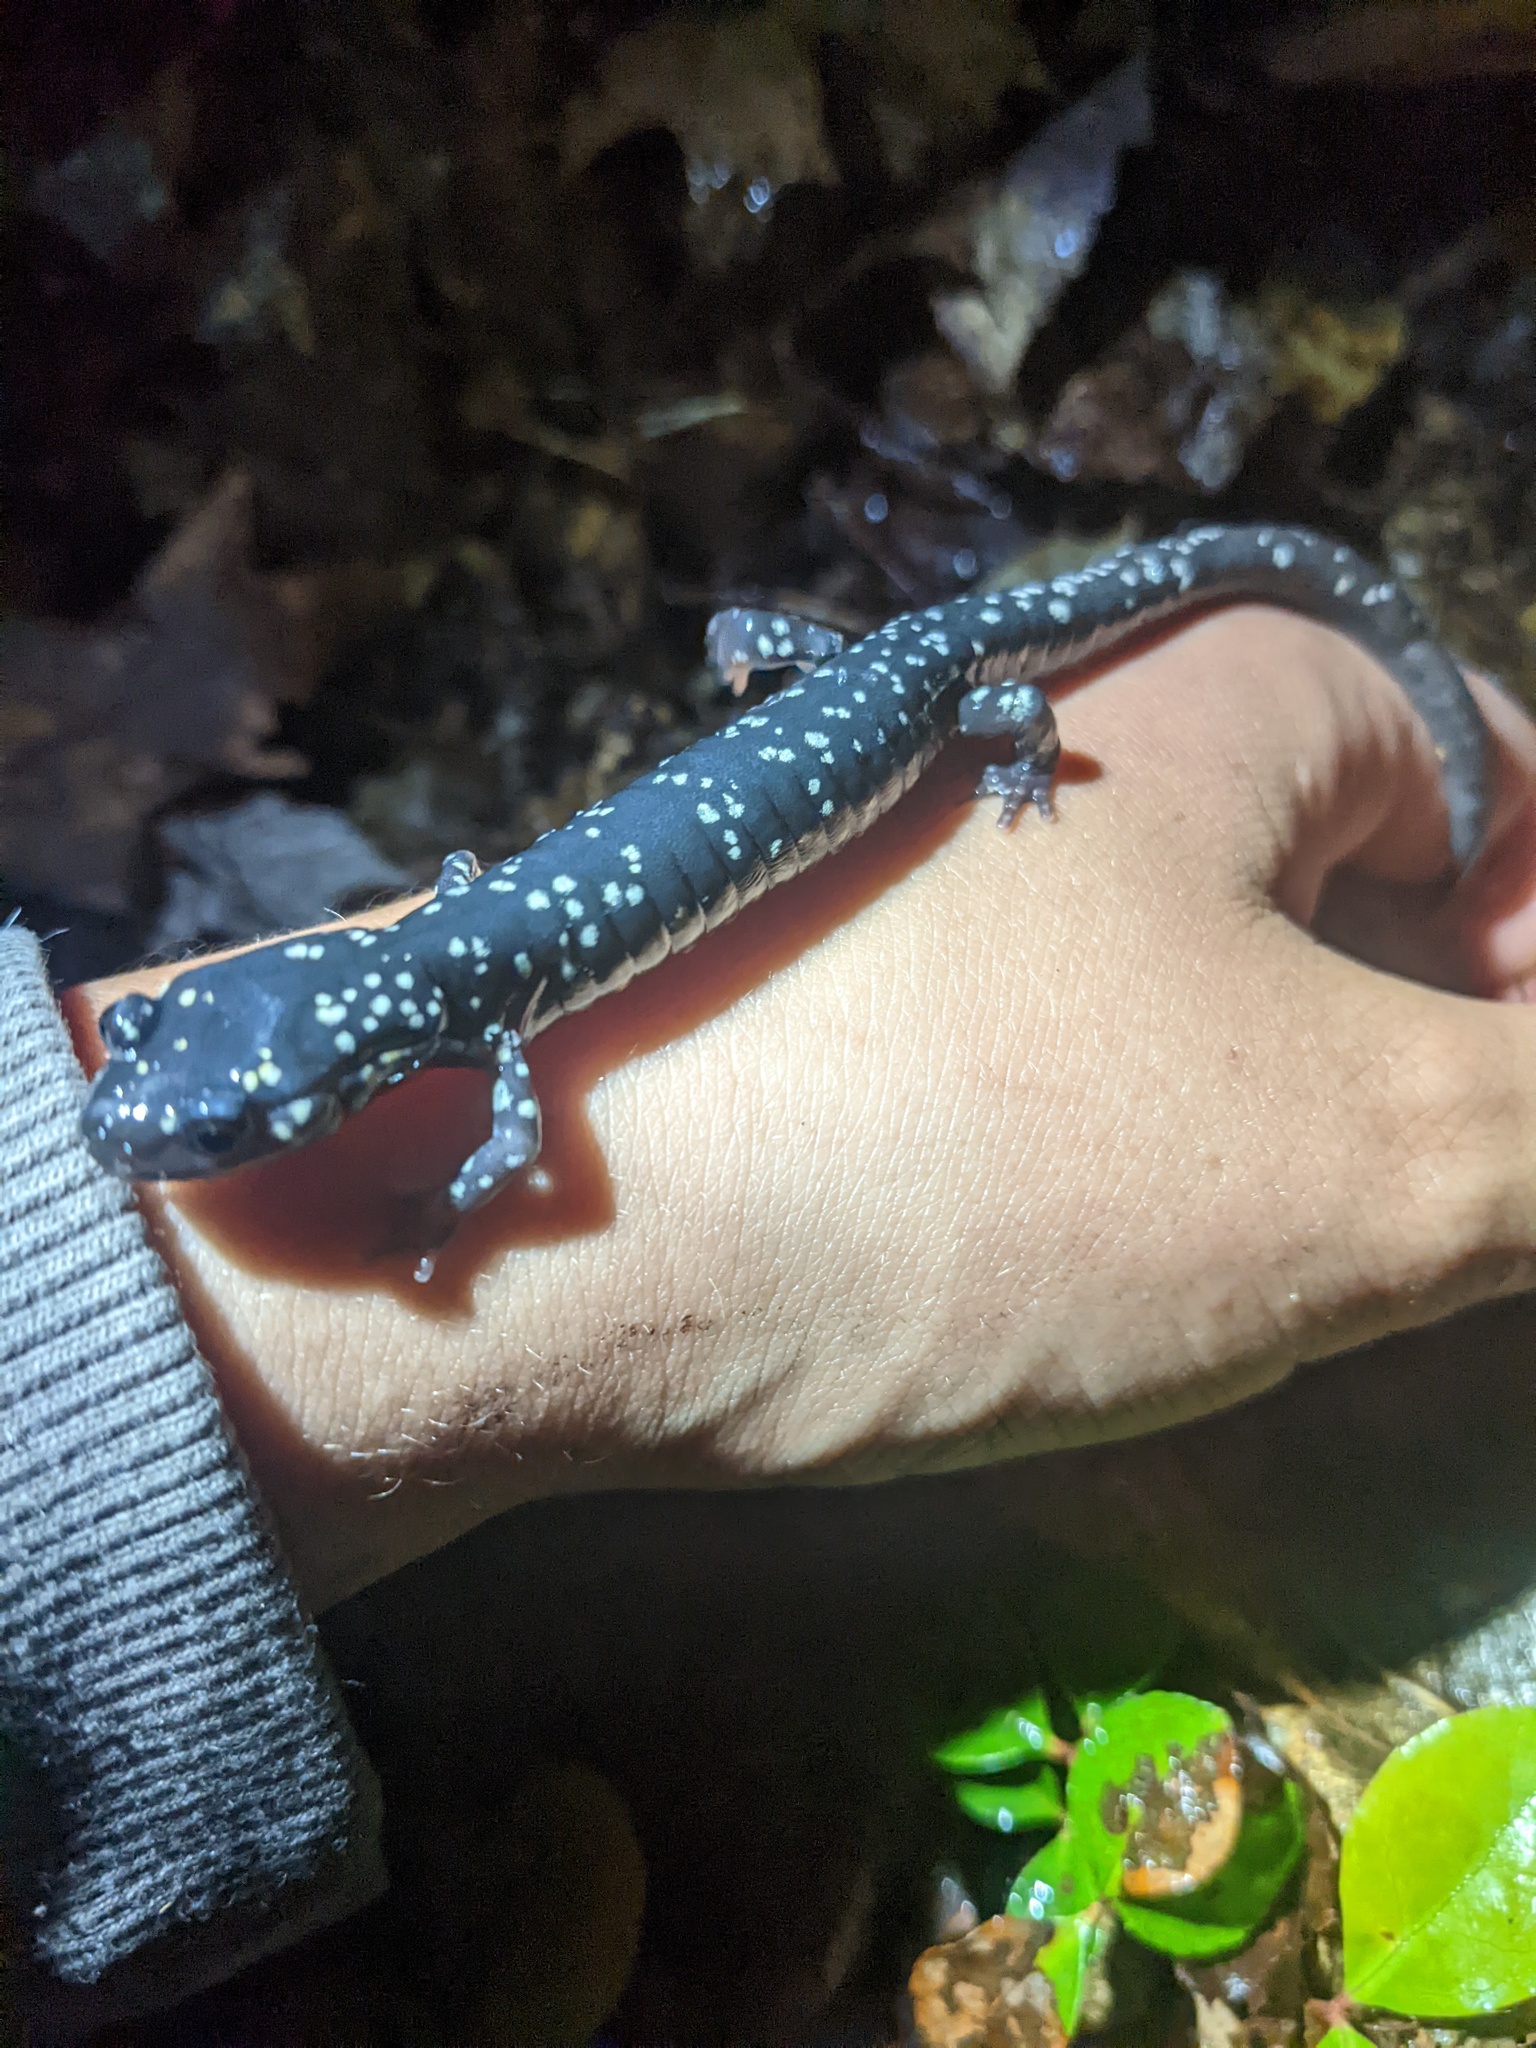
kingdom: Animalia
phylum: Chordata
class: Amphibia
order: Caudata
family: Plethodontidae
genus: Plethodon
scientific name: Plethodon glutinosus
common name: Northern slimy salamander
